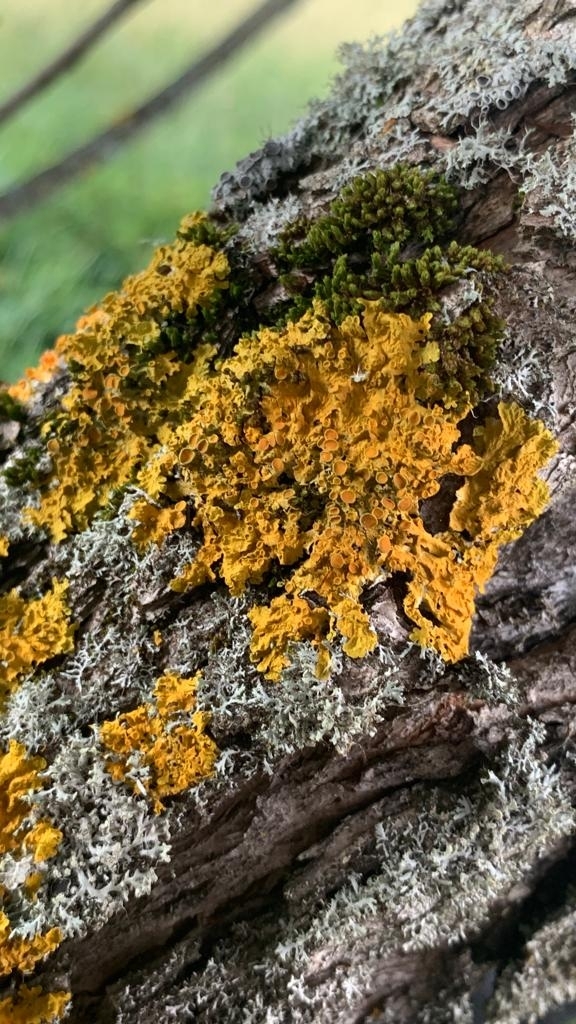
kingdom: Fungi
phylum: Ascomycota
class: Lecanoromycetes
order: Teloschistales
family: Teloschistaceae
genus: Xanthoria
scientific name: Xanthoria parietina
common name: Common orange lichen
